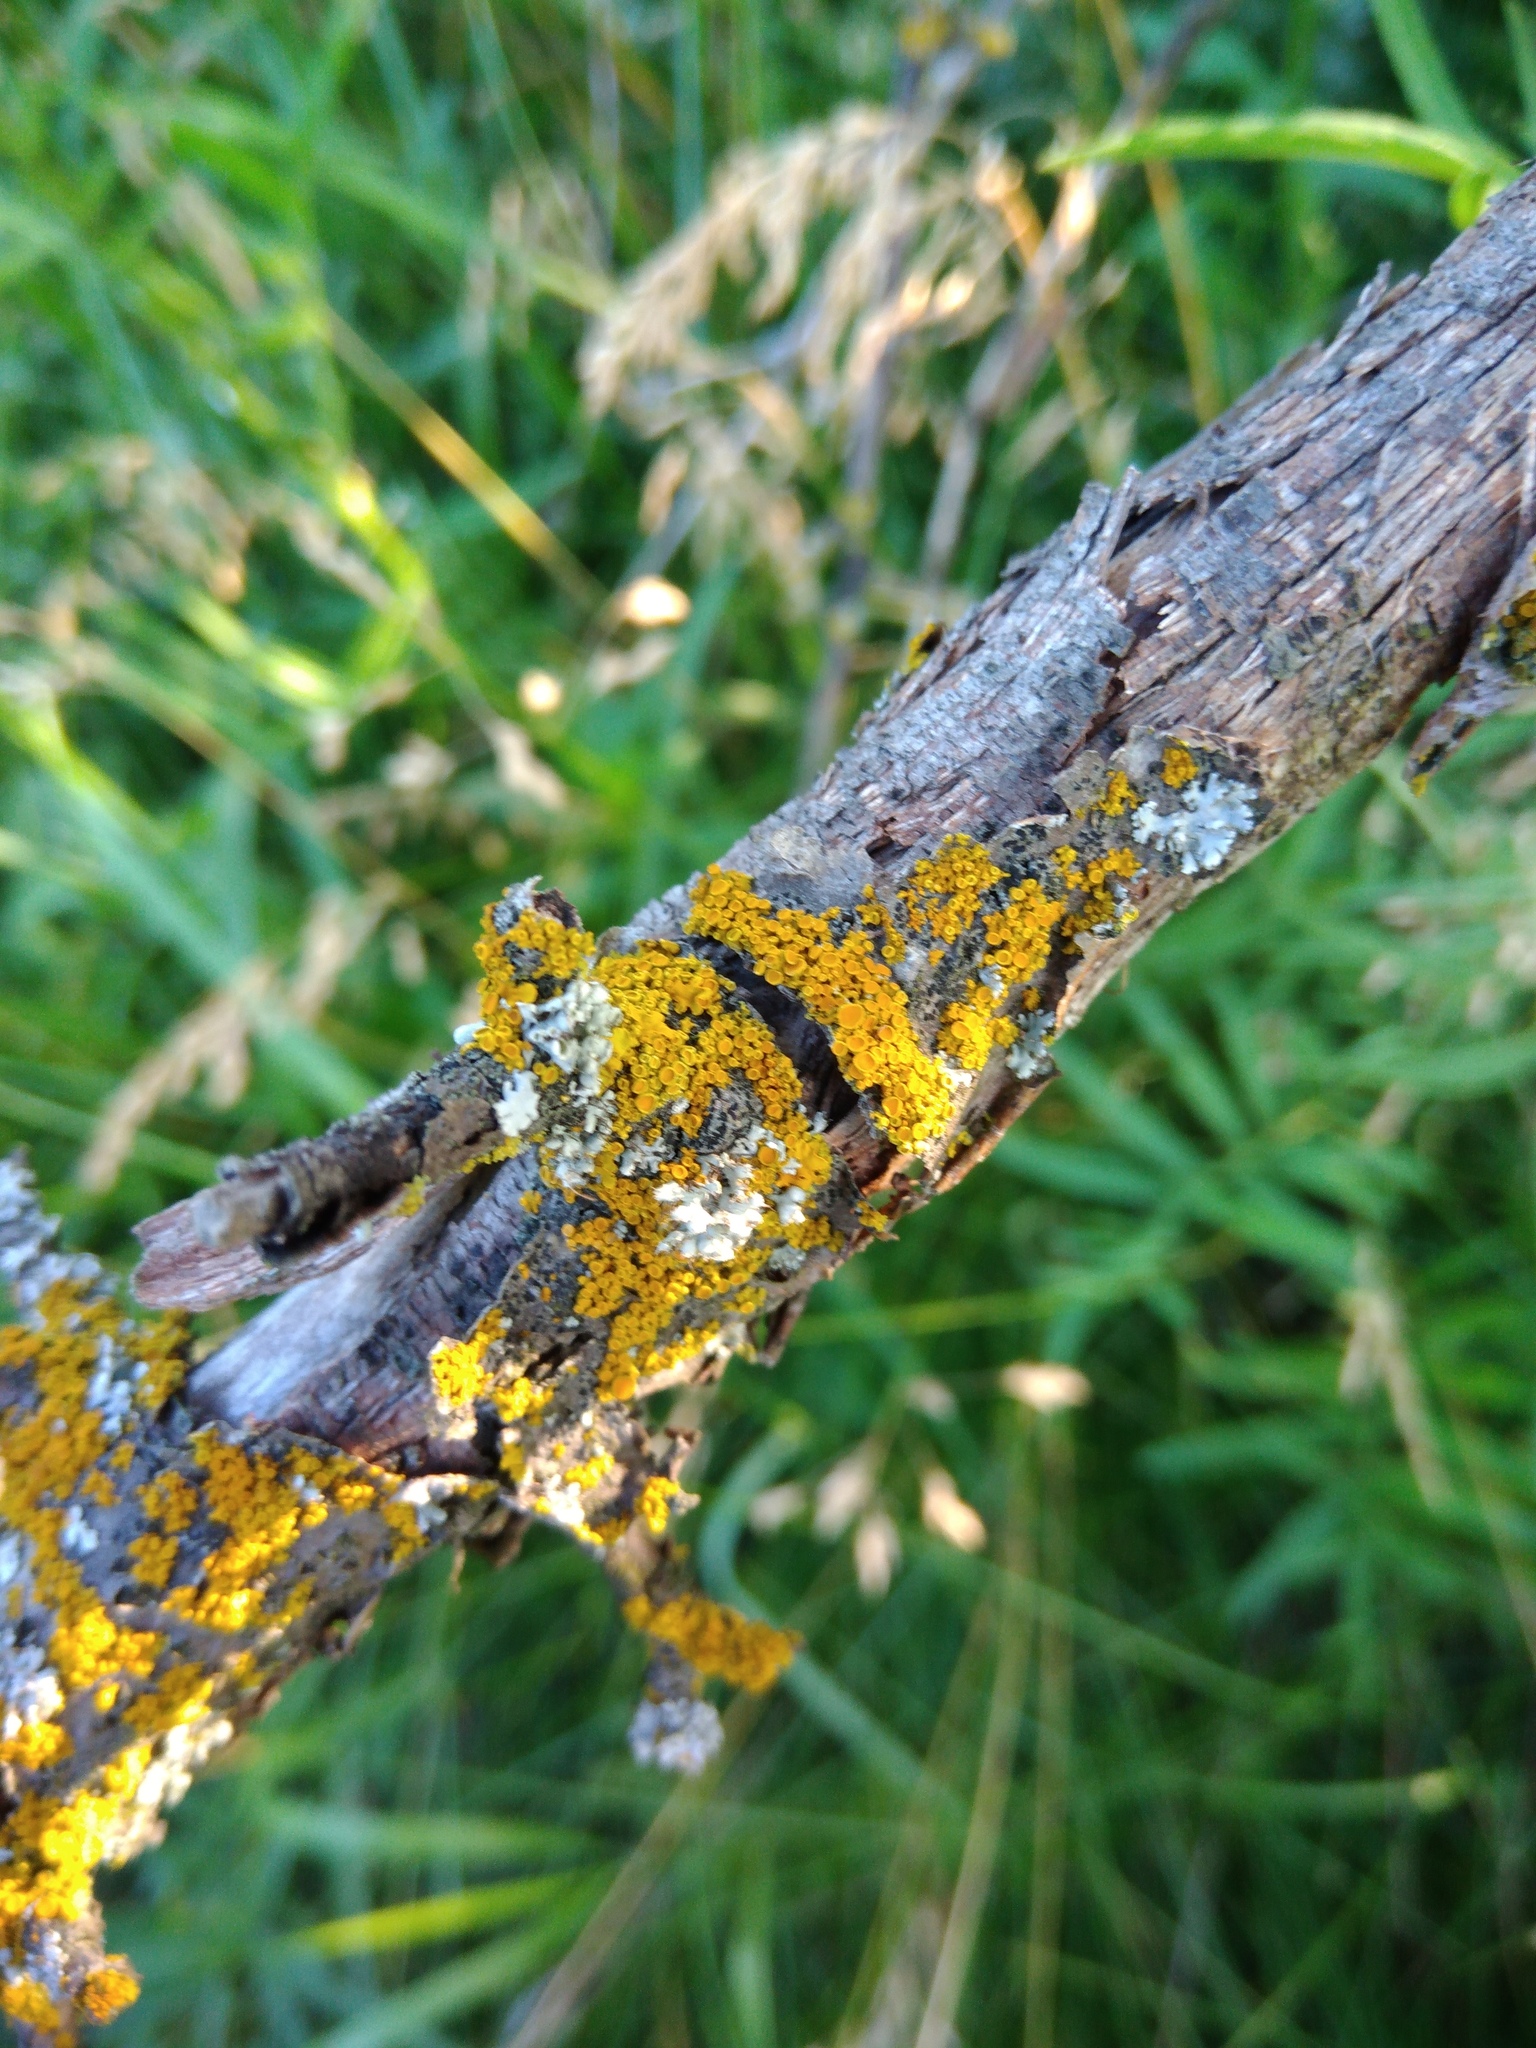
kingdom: Fungi
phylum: Ascomycota
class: Lecanoromycetes
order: Teloschistales
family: Teloschistaceae
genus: Polycauliona
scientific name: Polycauliona polycarpa
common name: Pin-cushion sunburst lichen
